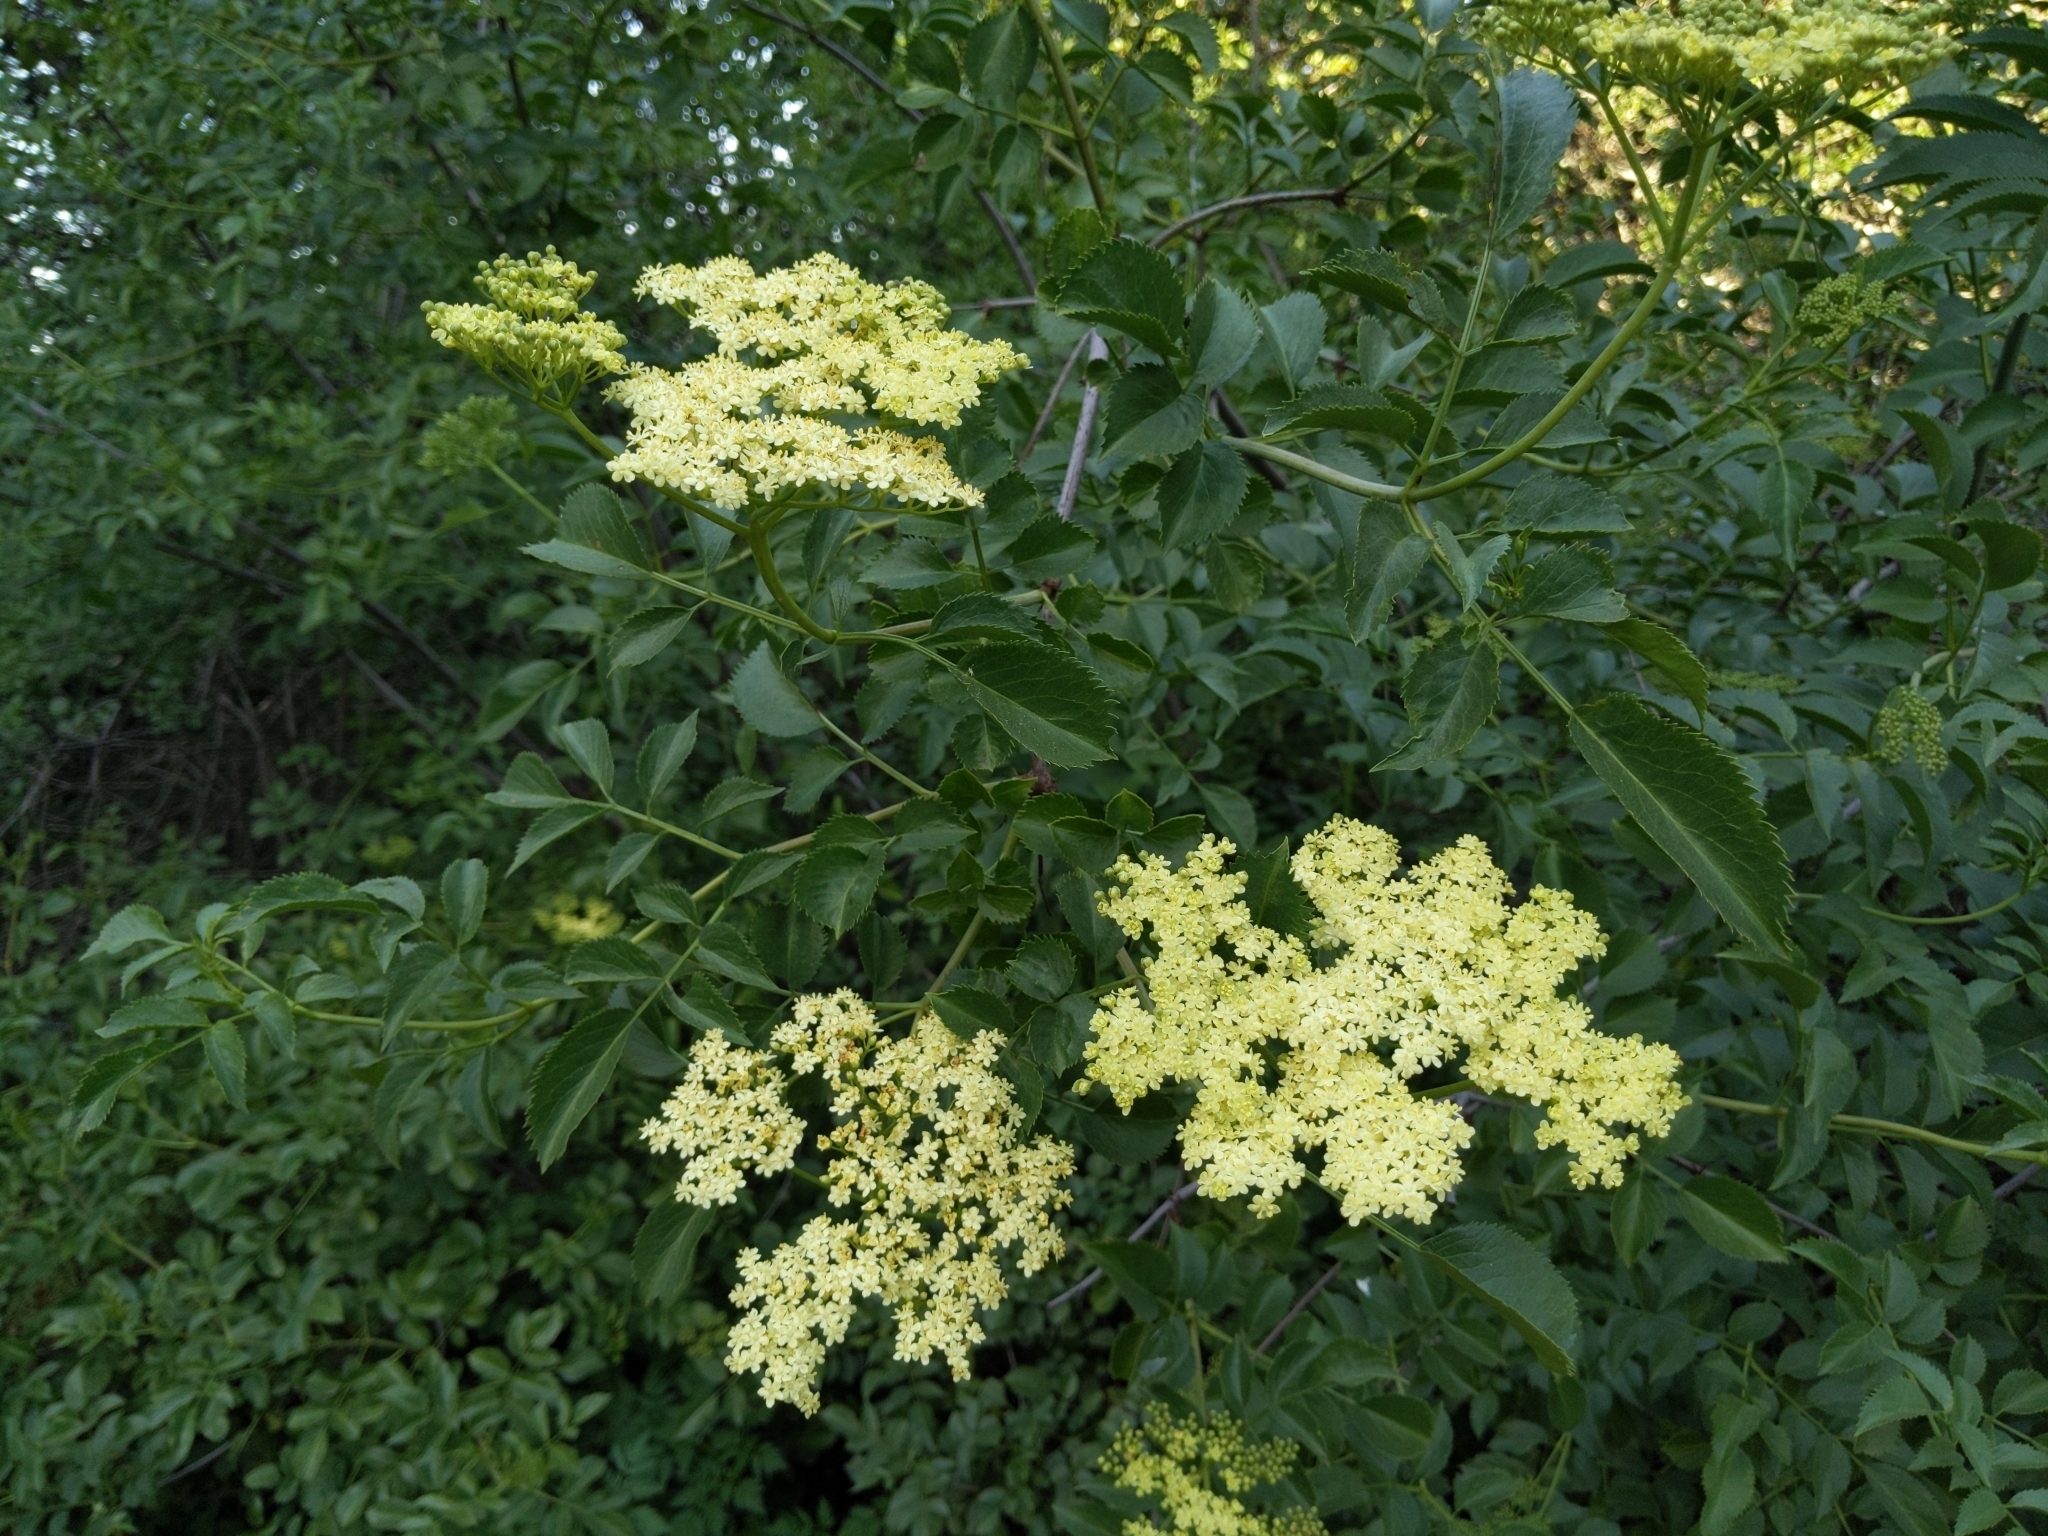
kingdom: Plantae
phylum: Tracheophyta
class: Magnoliopsida
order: Dipsacales
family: Viburnaceae
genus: Sambucus
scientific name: Sambucus cerulea
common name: Blue elder
